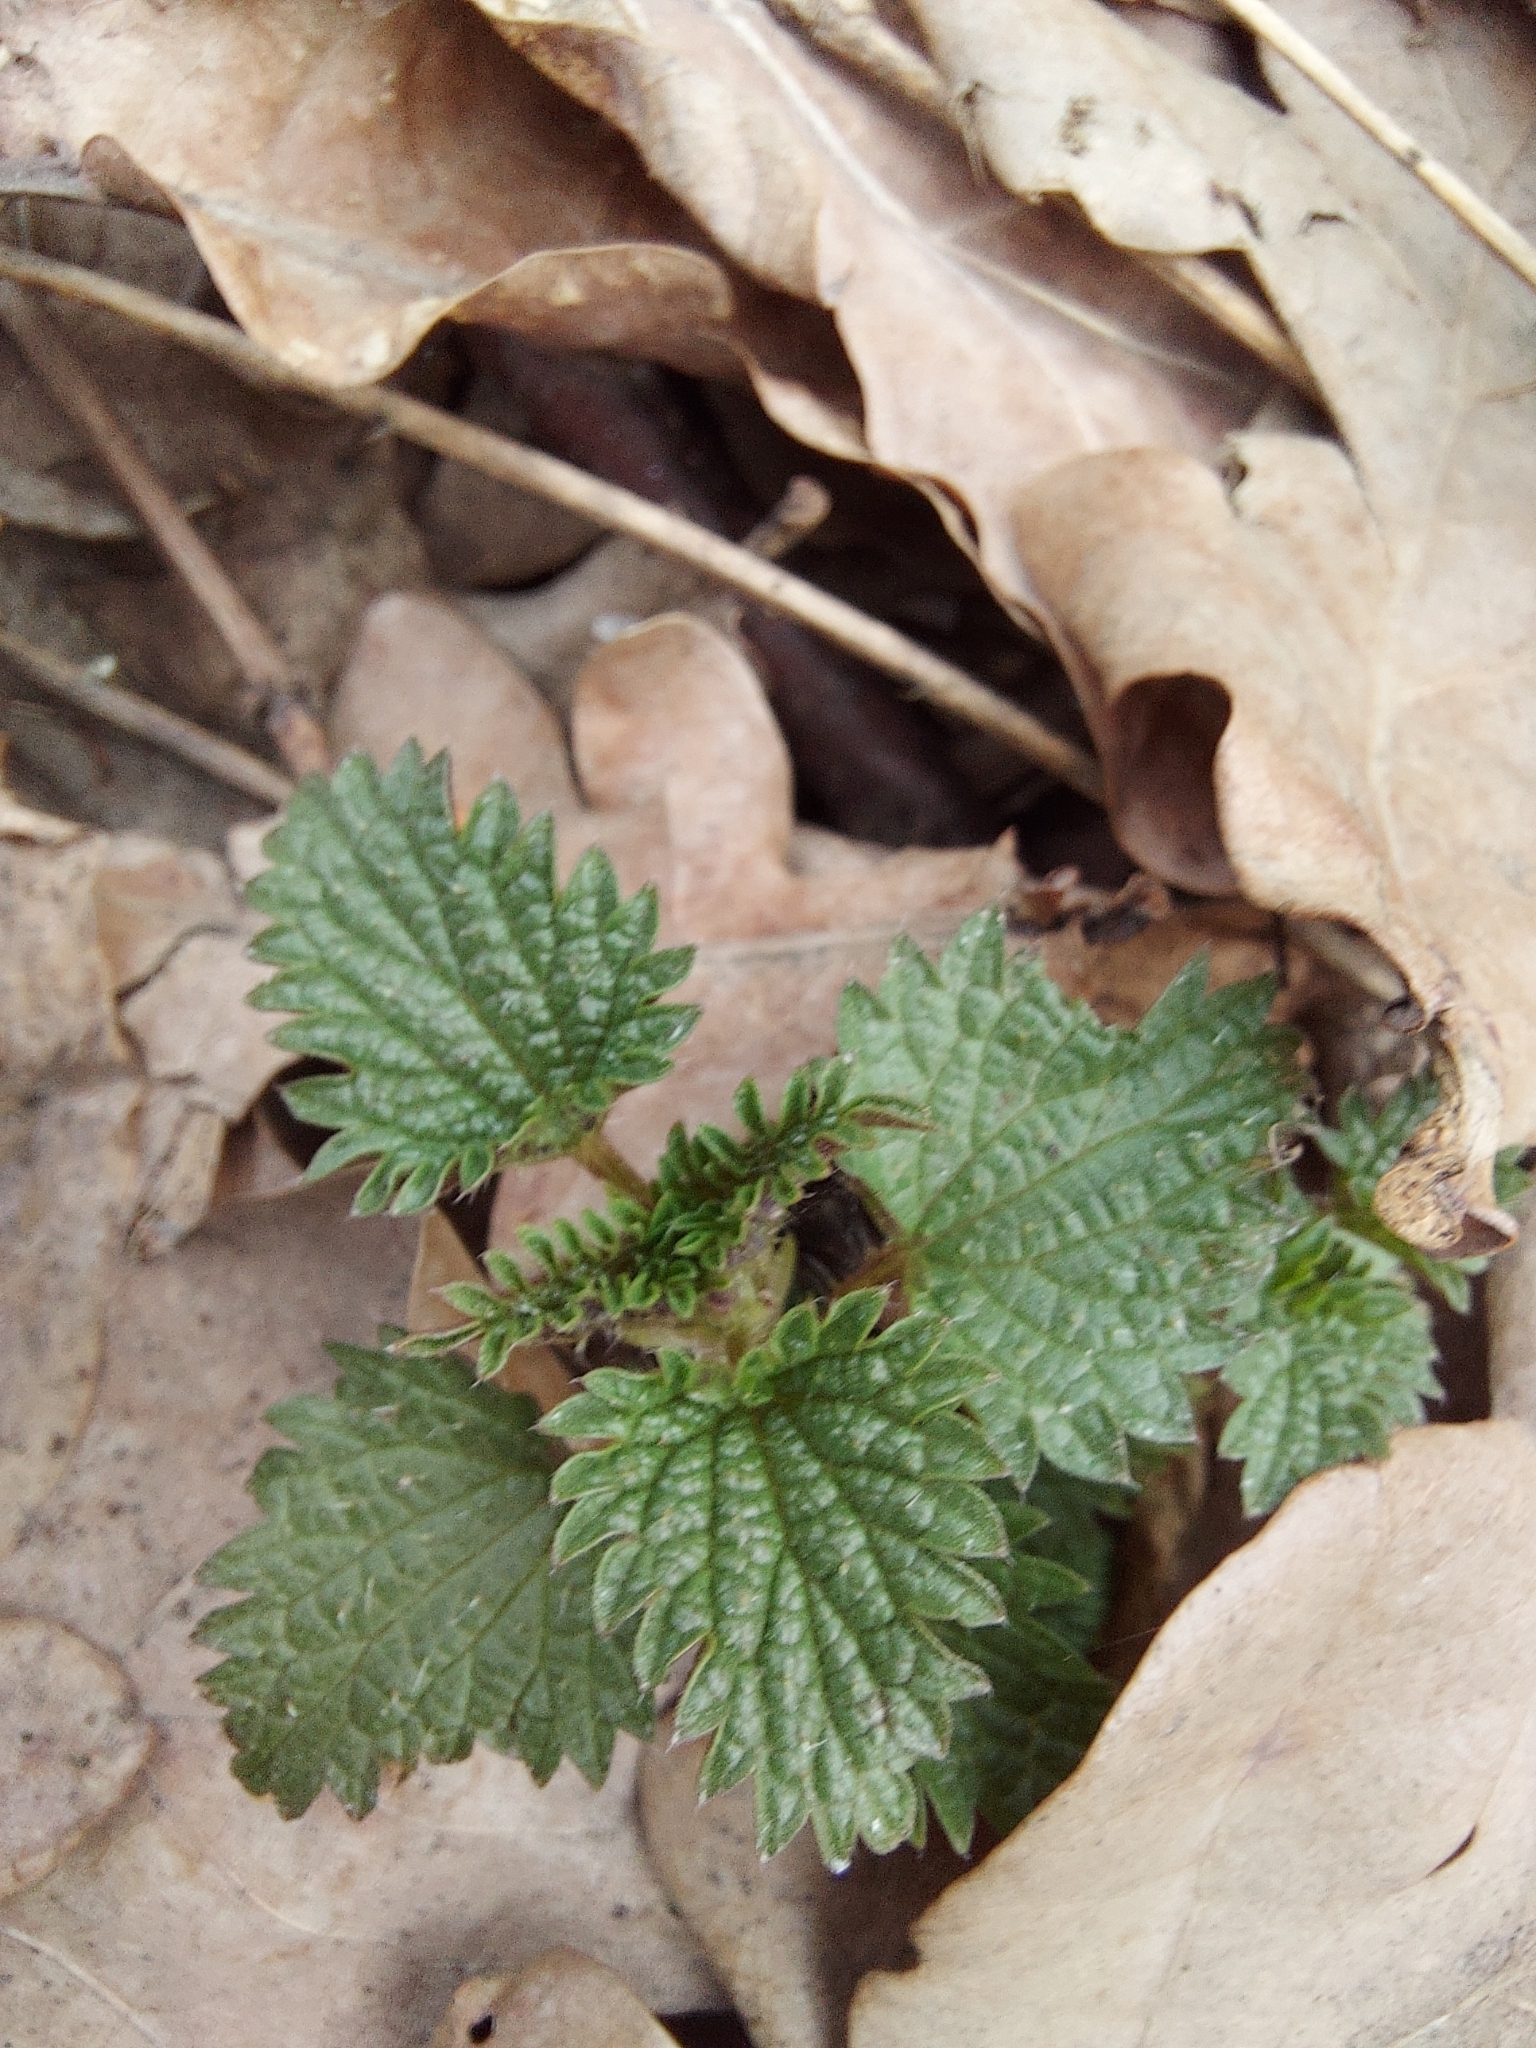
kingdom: Plantae
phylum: Tracheophyta
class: Magnoliopsida
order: Rosales
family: Urticaceae
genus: Urtica
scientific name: Urtica dioica
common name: Common nettle
